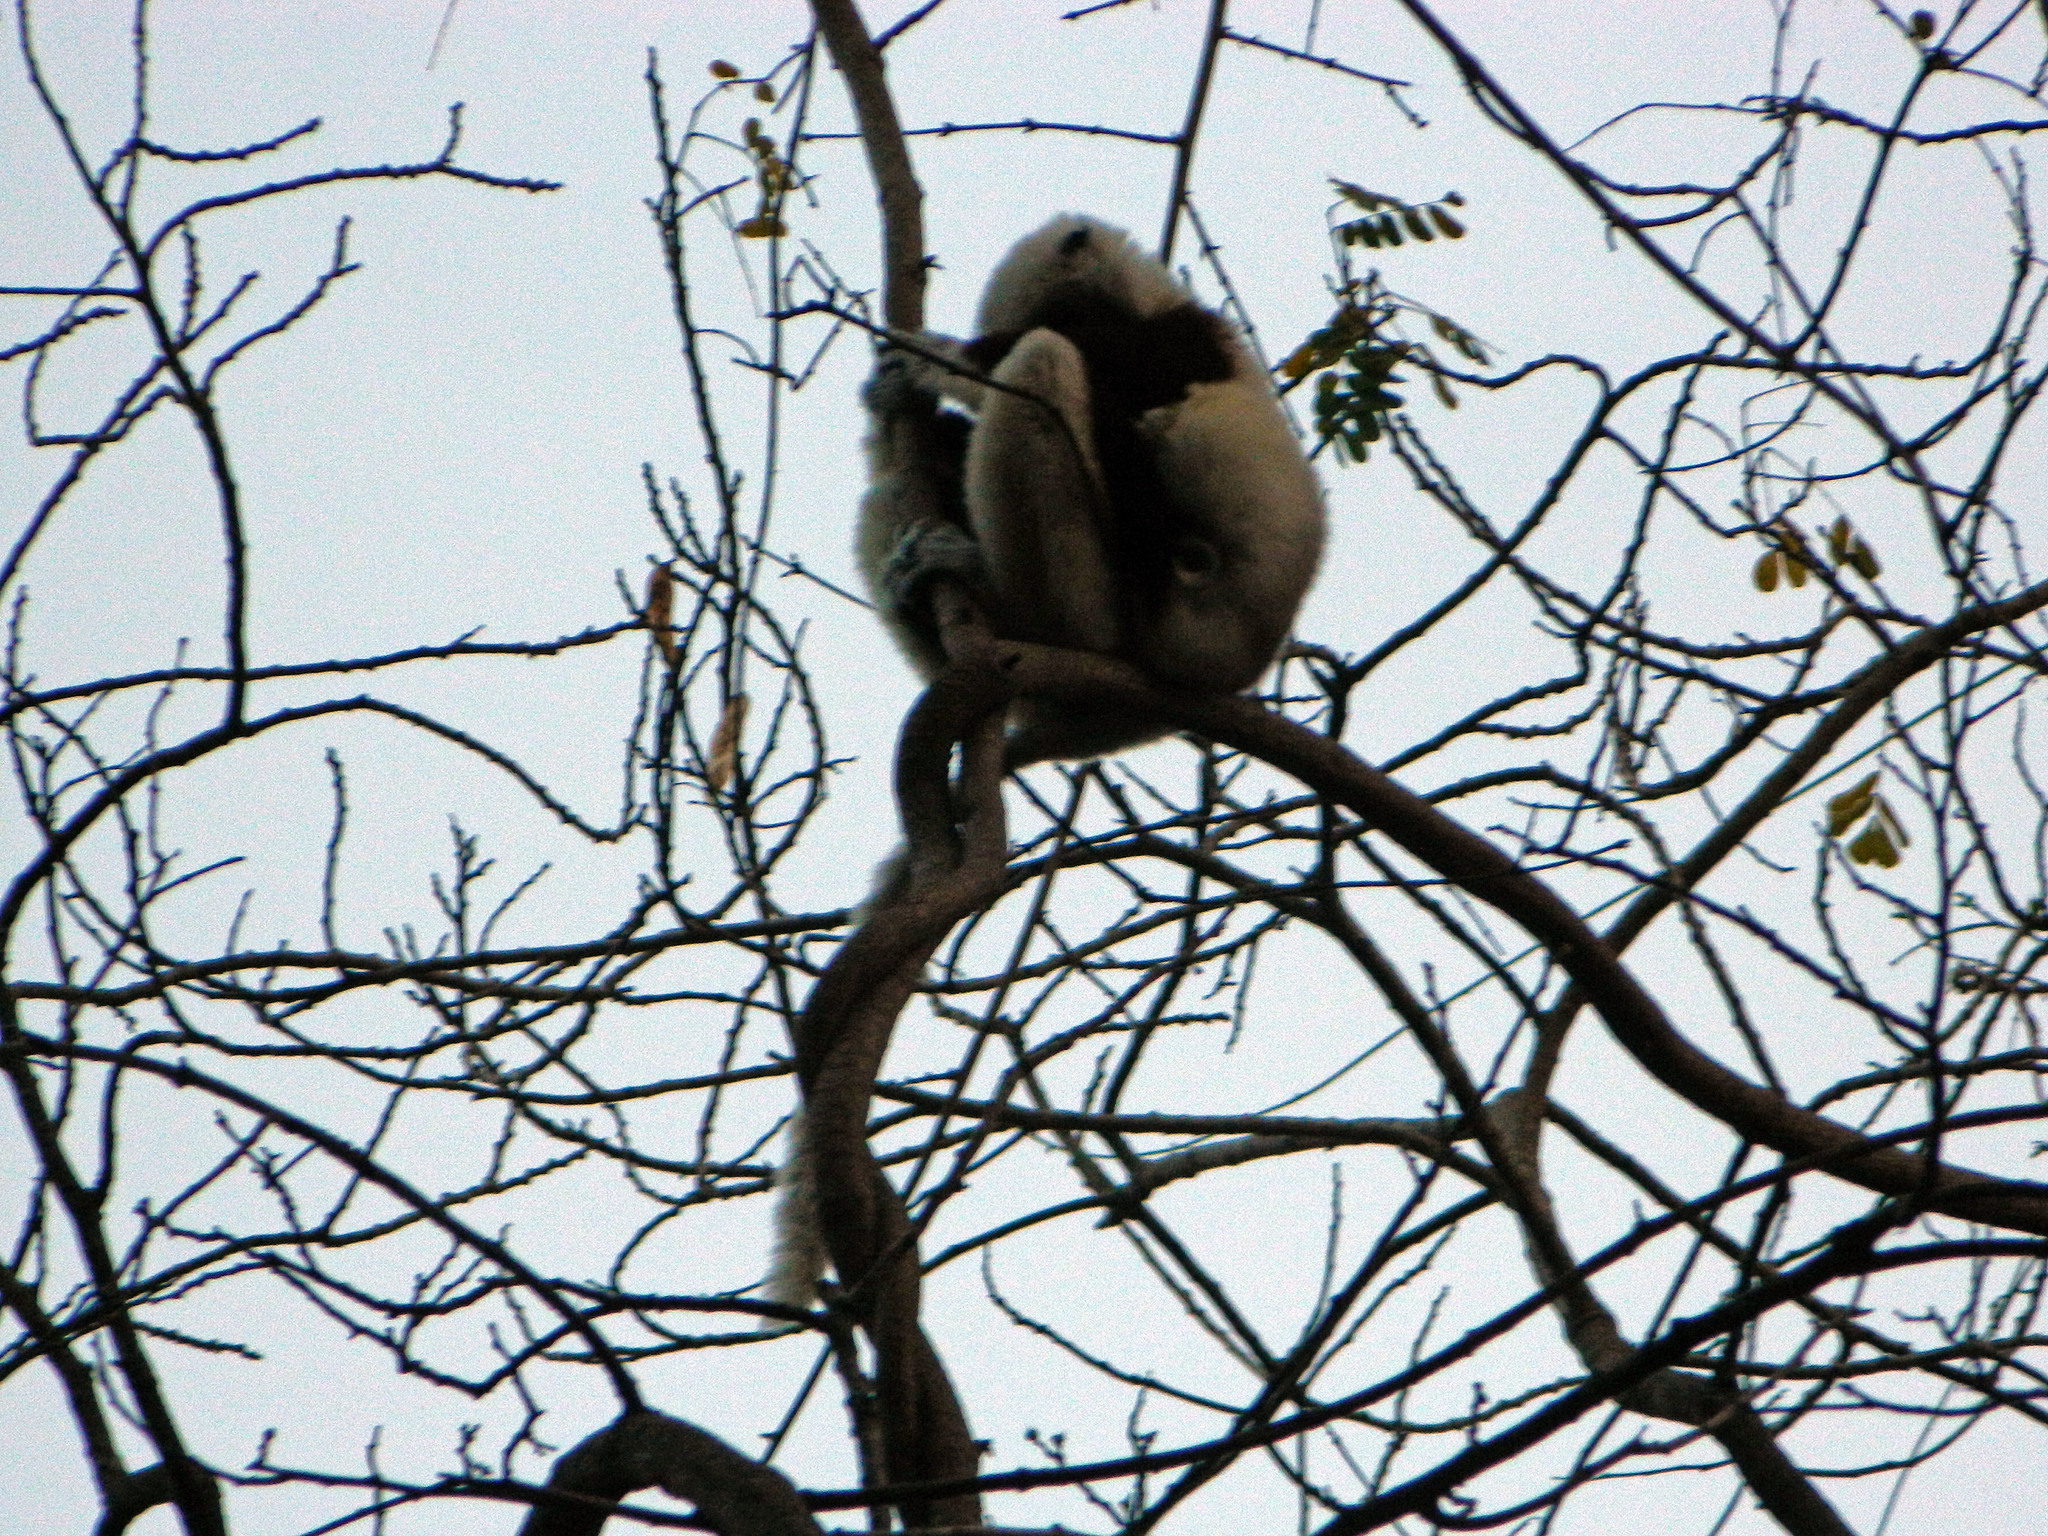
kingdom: Animalia
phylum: Chordata
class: Mammalia
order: Primates
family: Indriidae
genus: Propithecus
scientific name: Propithecus coquereli
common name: Coquerel's sifaka
